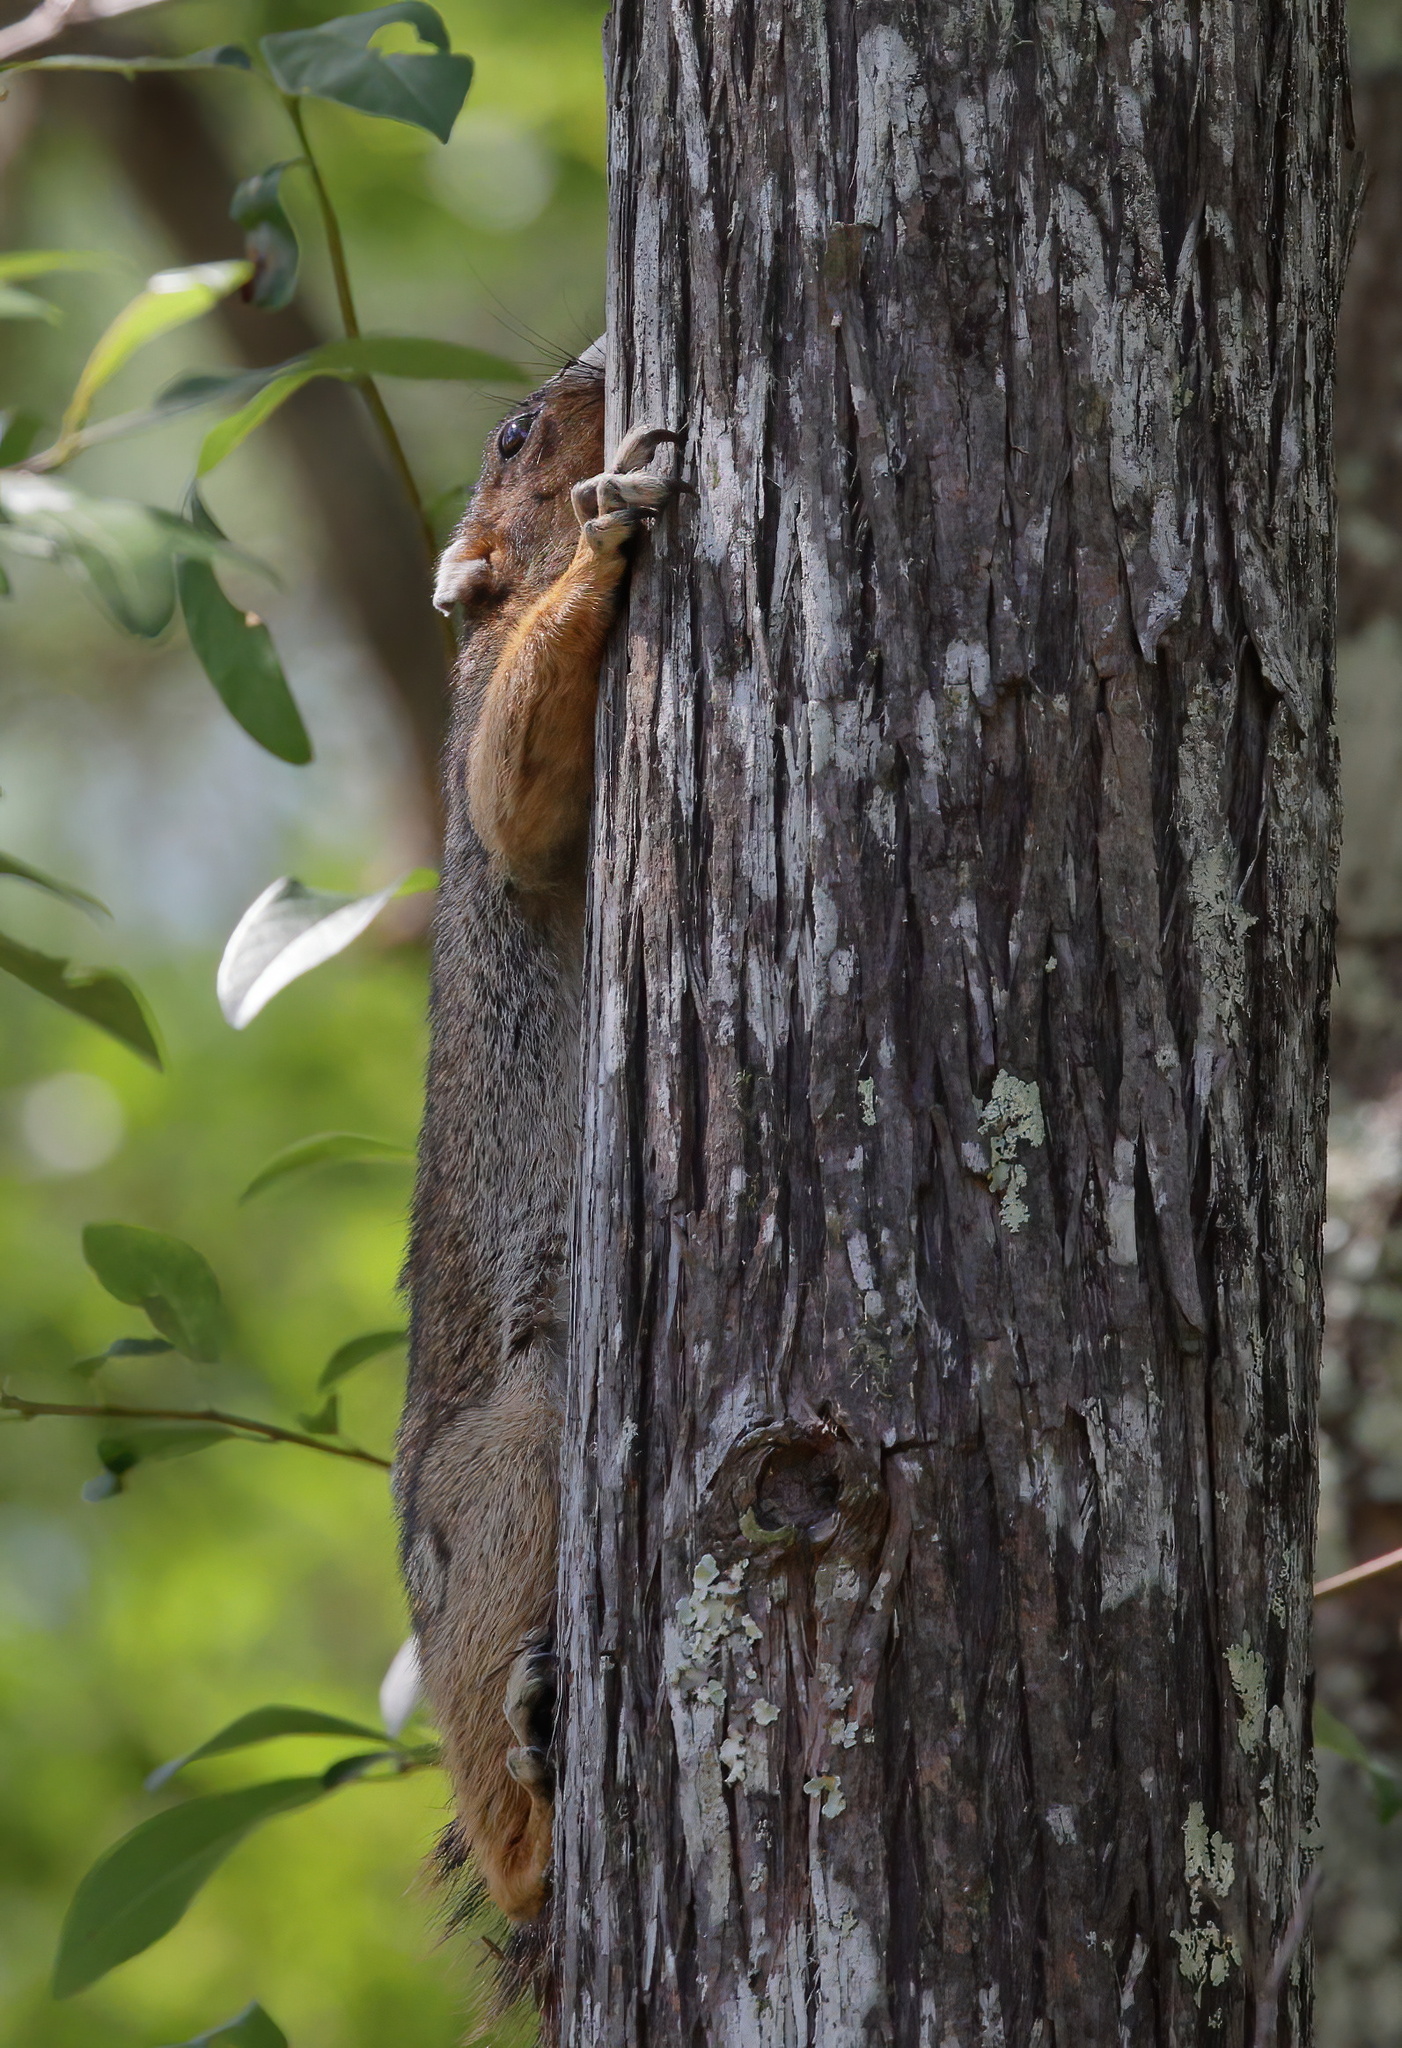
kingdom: Animalia
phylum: Chordata
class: Mammalia
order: Rodentia
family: Sciuridae
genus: Sciurus
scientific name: Sciurus niger
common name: Fox squirrel
